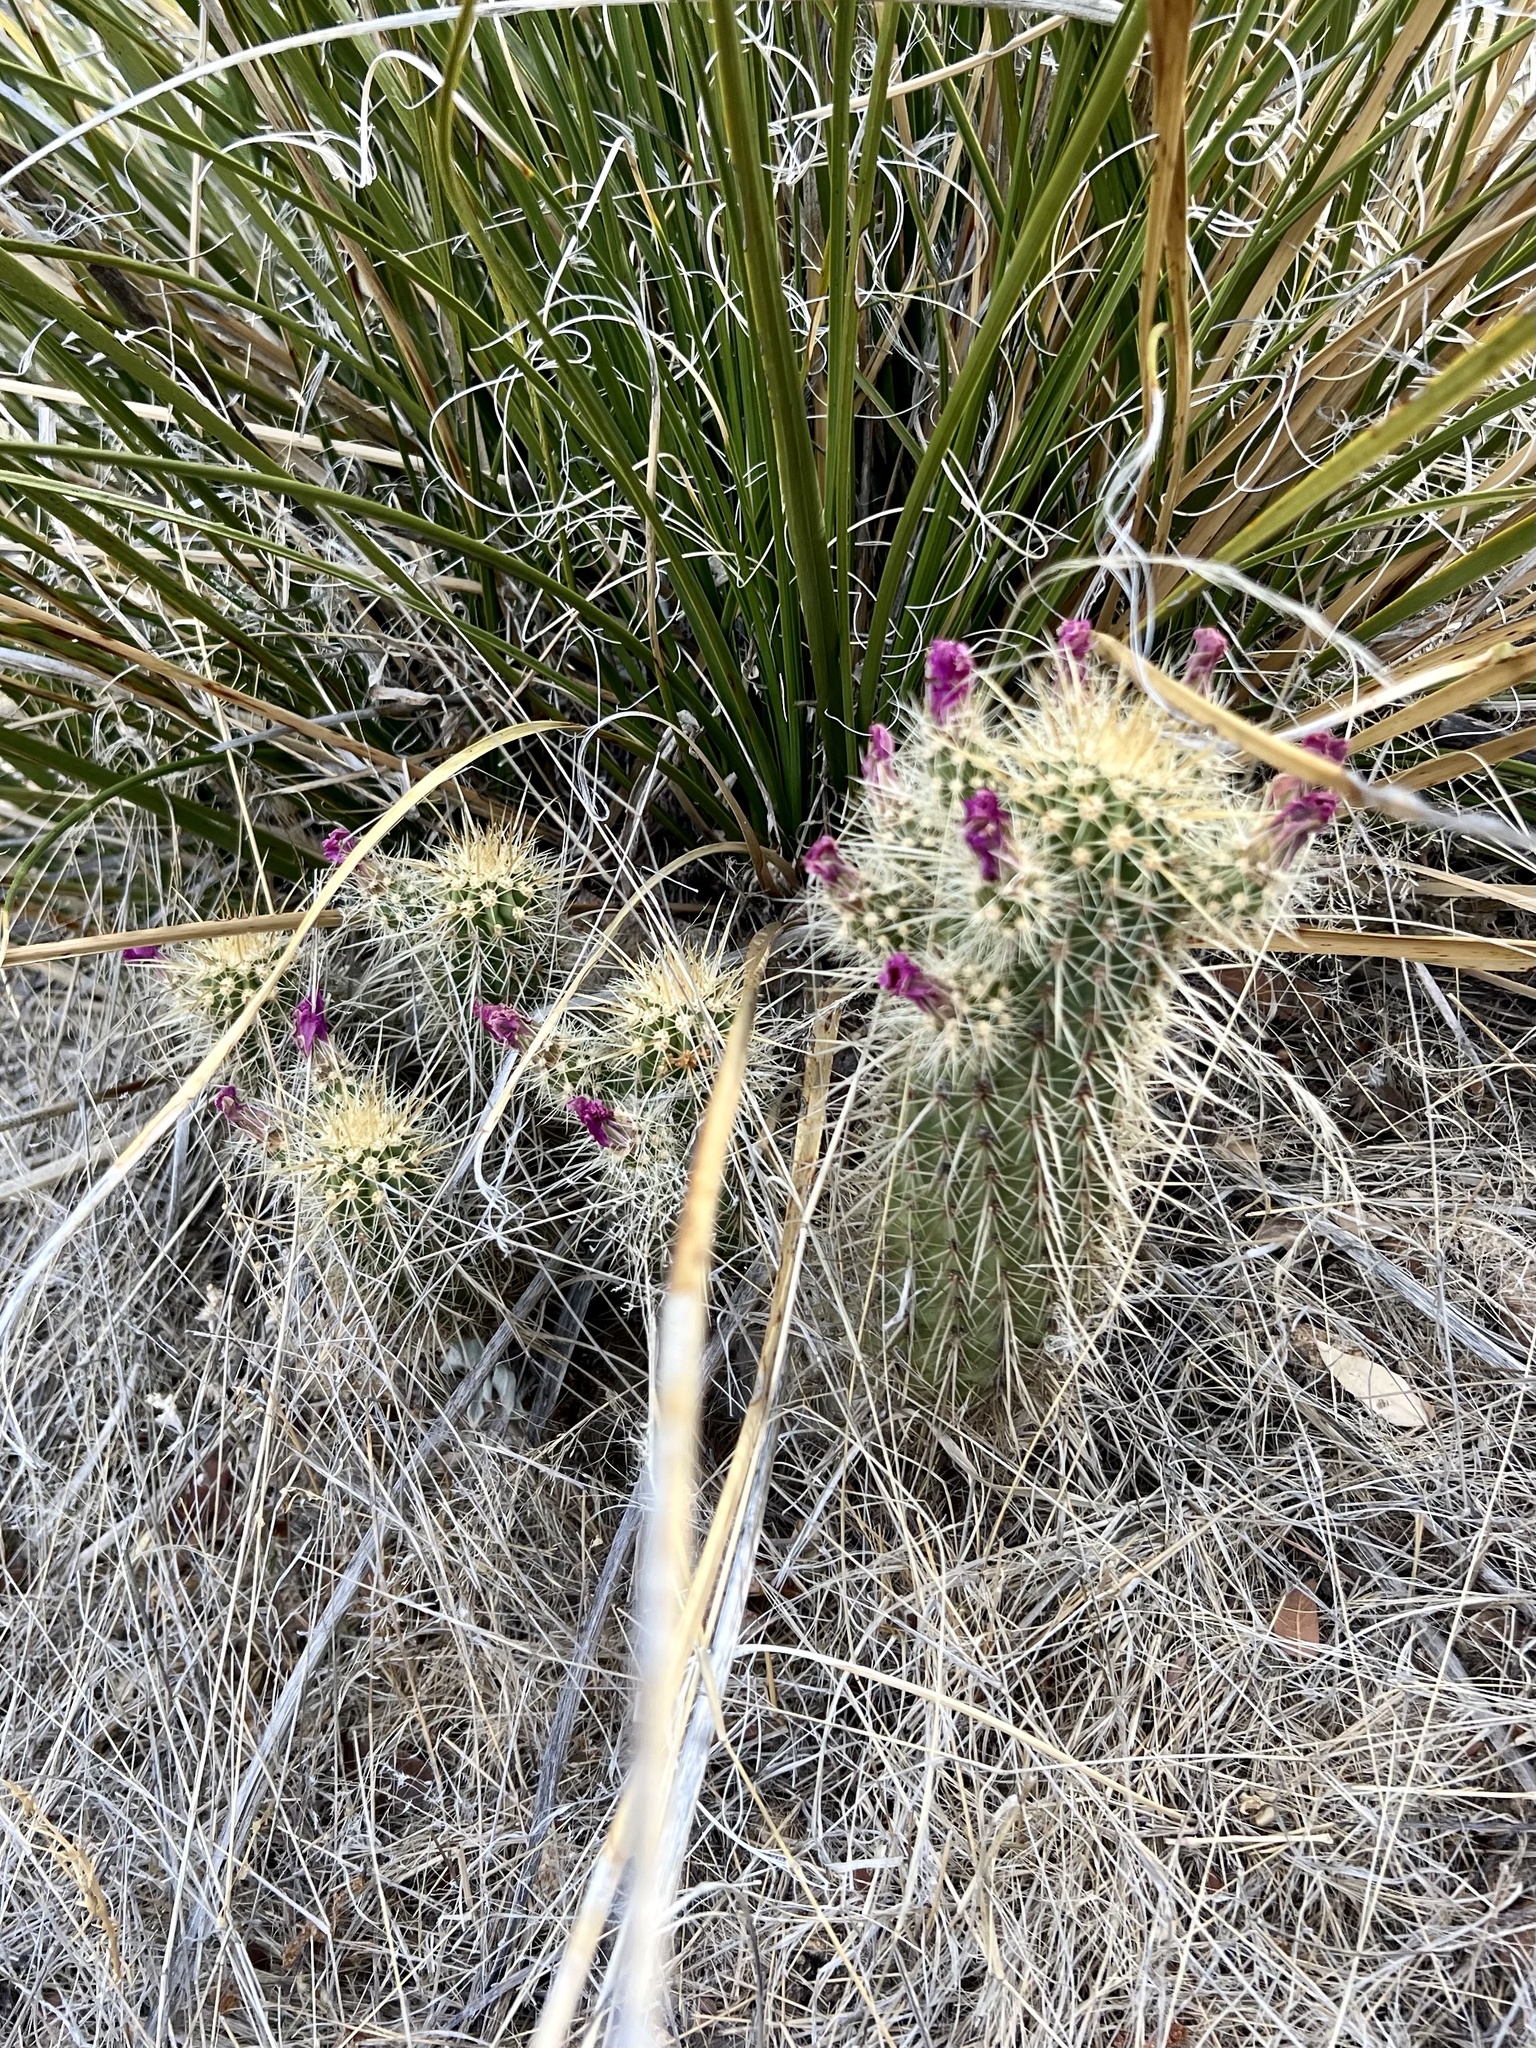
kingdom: Plantae
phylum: Tracheophyta
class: Magnoliopsida
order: Caryophyllales
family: Cactaceae
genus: Echinocereus
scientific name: Echinocereus ledingii
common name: Leding's hedgehog cactus
